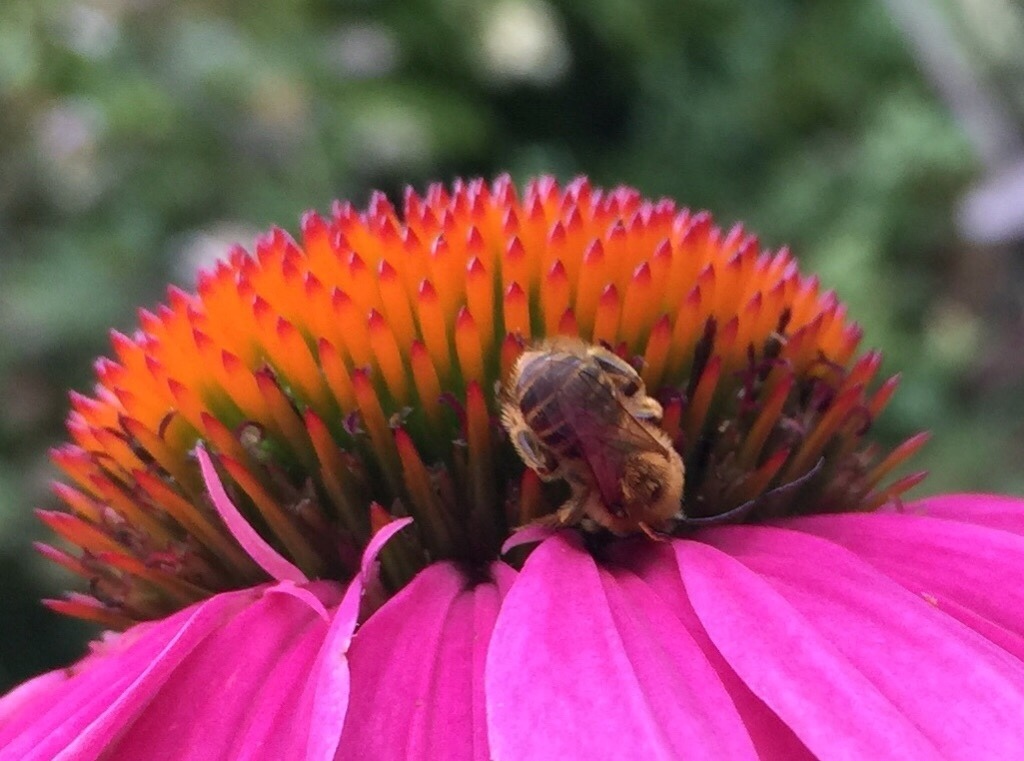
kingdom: Animalia
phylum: Arthropoda
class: Insecta
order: Hymenoptera
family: Apidae
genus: Melissodes
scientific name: Melissodes trinodis
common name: Dark-veined longhorn
